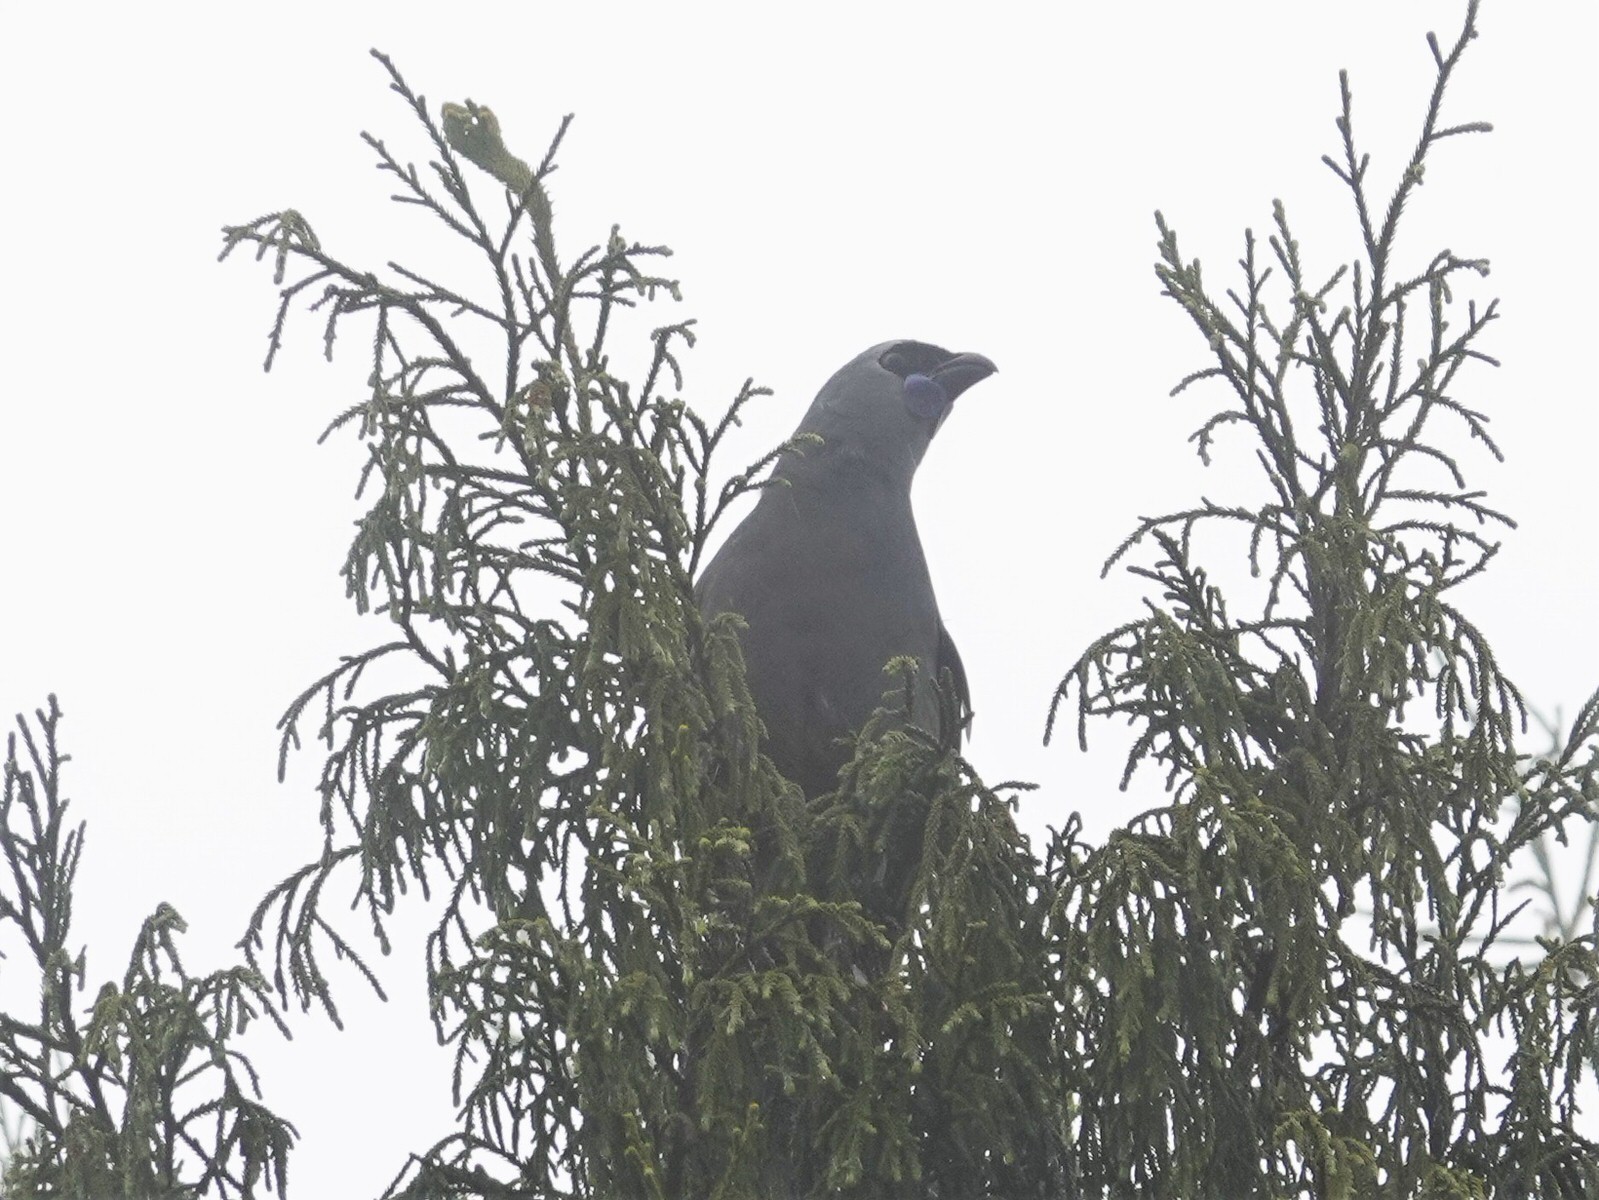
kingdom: Animalia
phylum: Chordata
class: Aves
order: Passeriformes
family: Callaeatidae
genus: Callaeas
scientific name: Callaeas cinereus
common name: South island kokako
